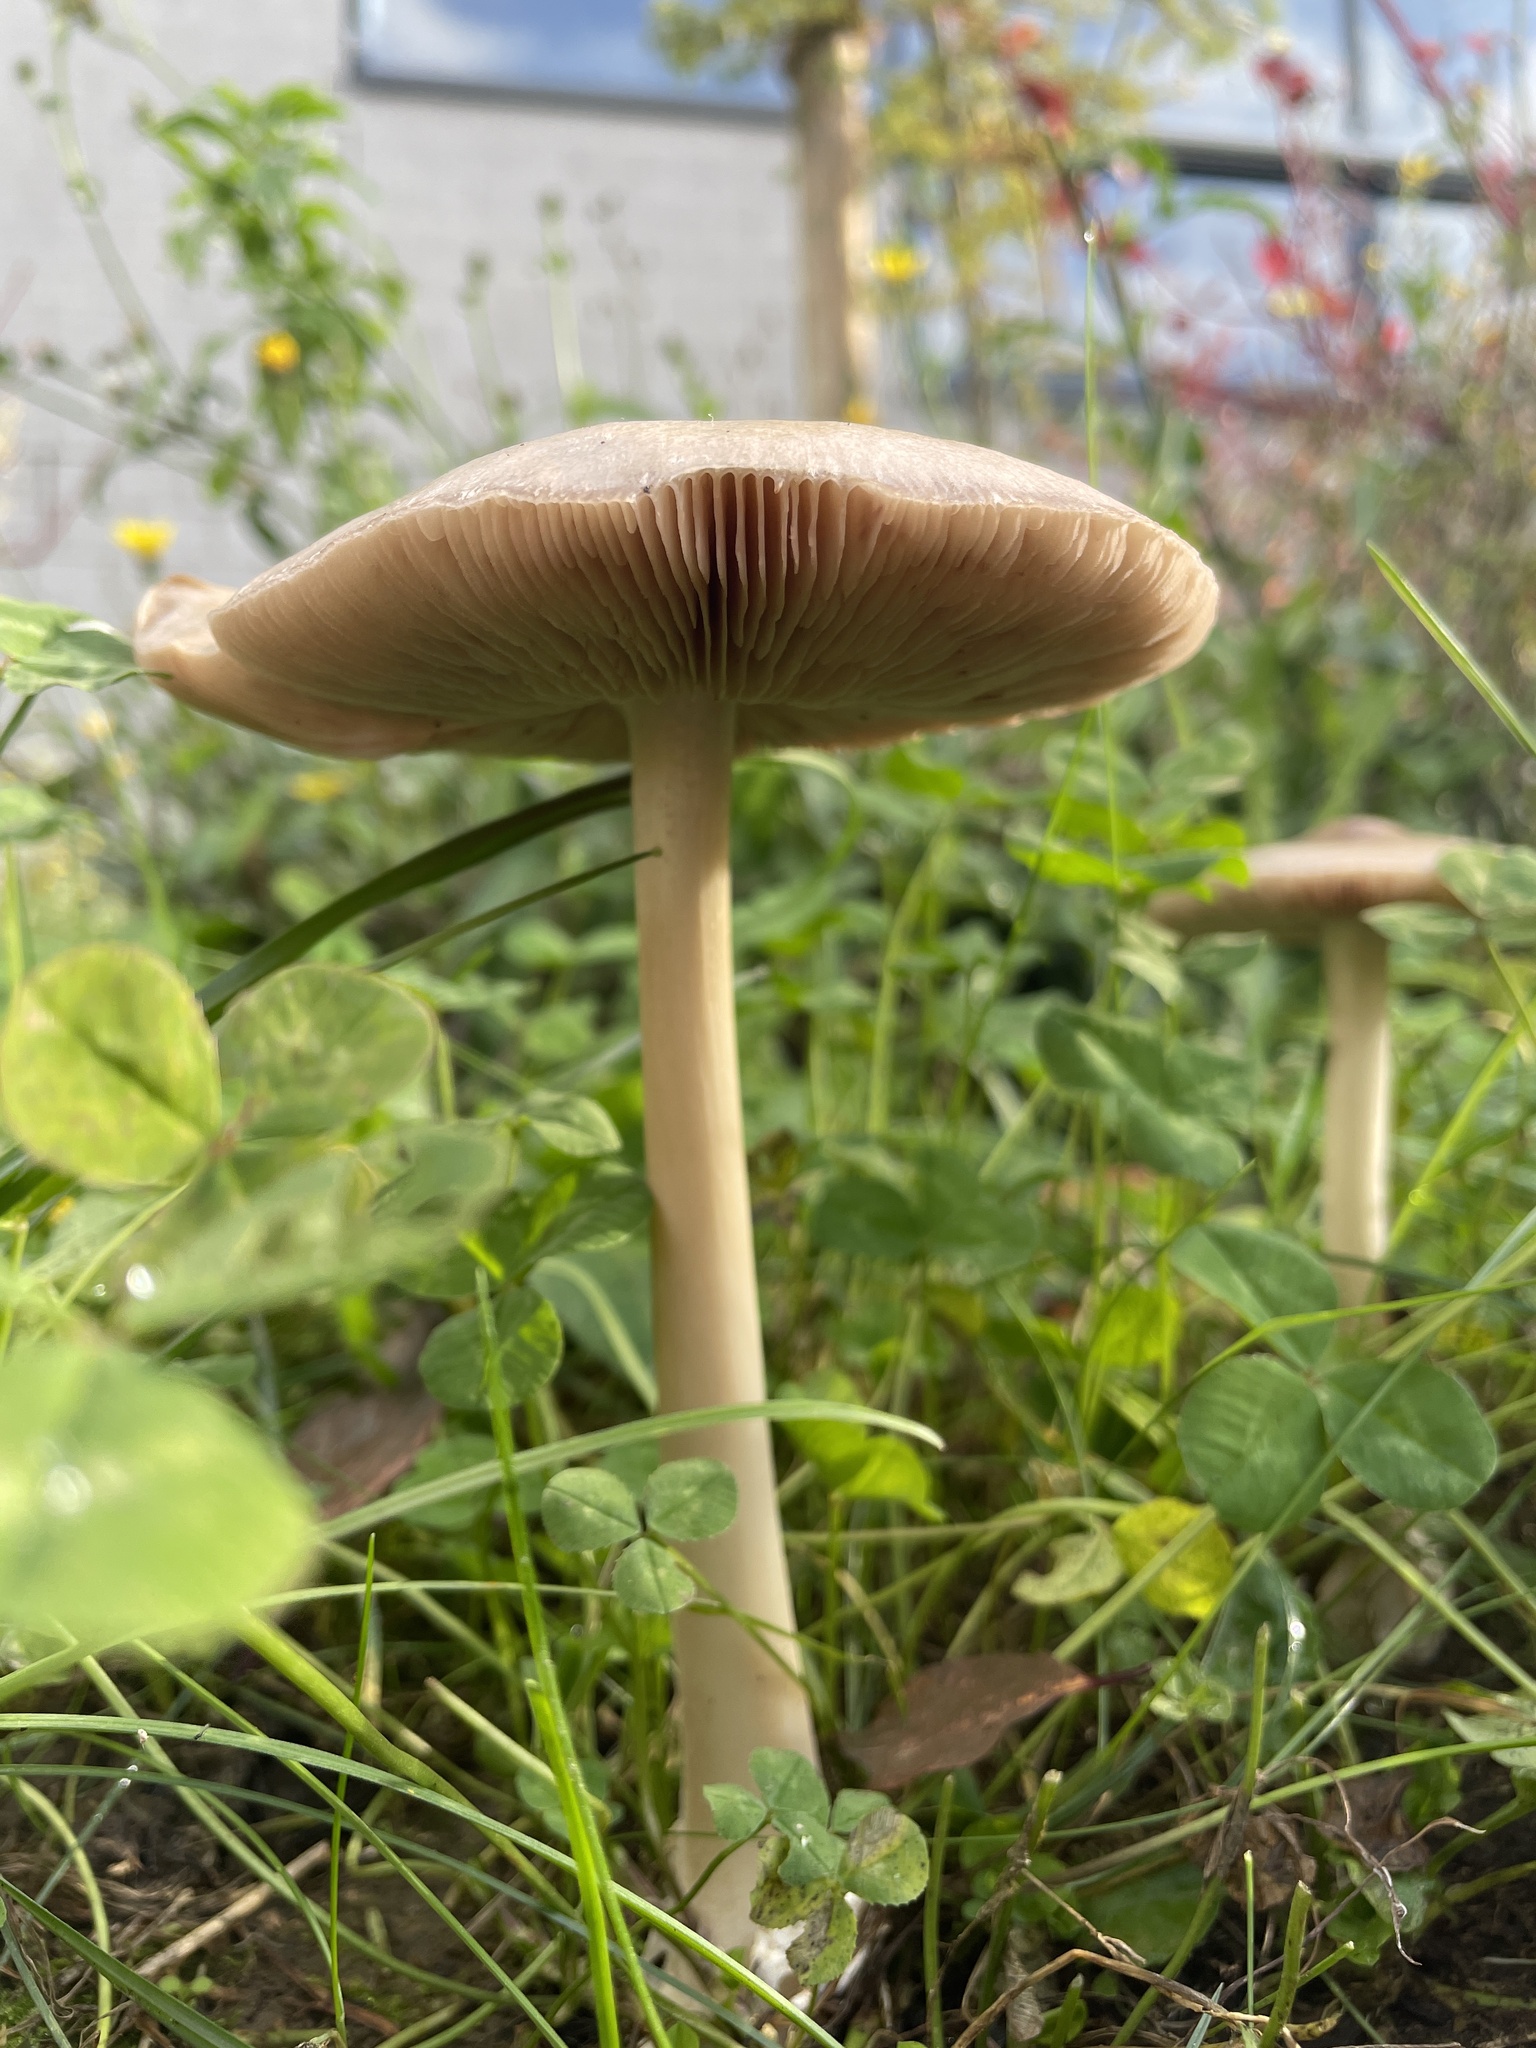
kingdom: Fungi
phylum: Basidiomycota
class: Agaricomycetes
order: Agaricales
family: Pluteaceae
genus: Volvopluteus
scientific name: Volvopluteus gloiocephalus
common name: Stubble rosegill
